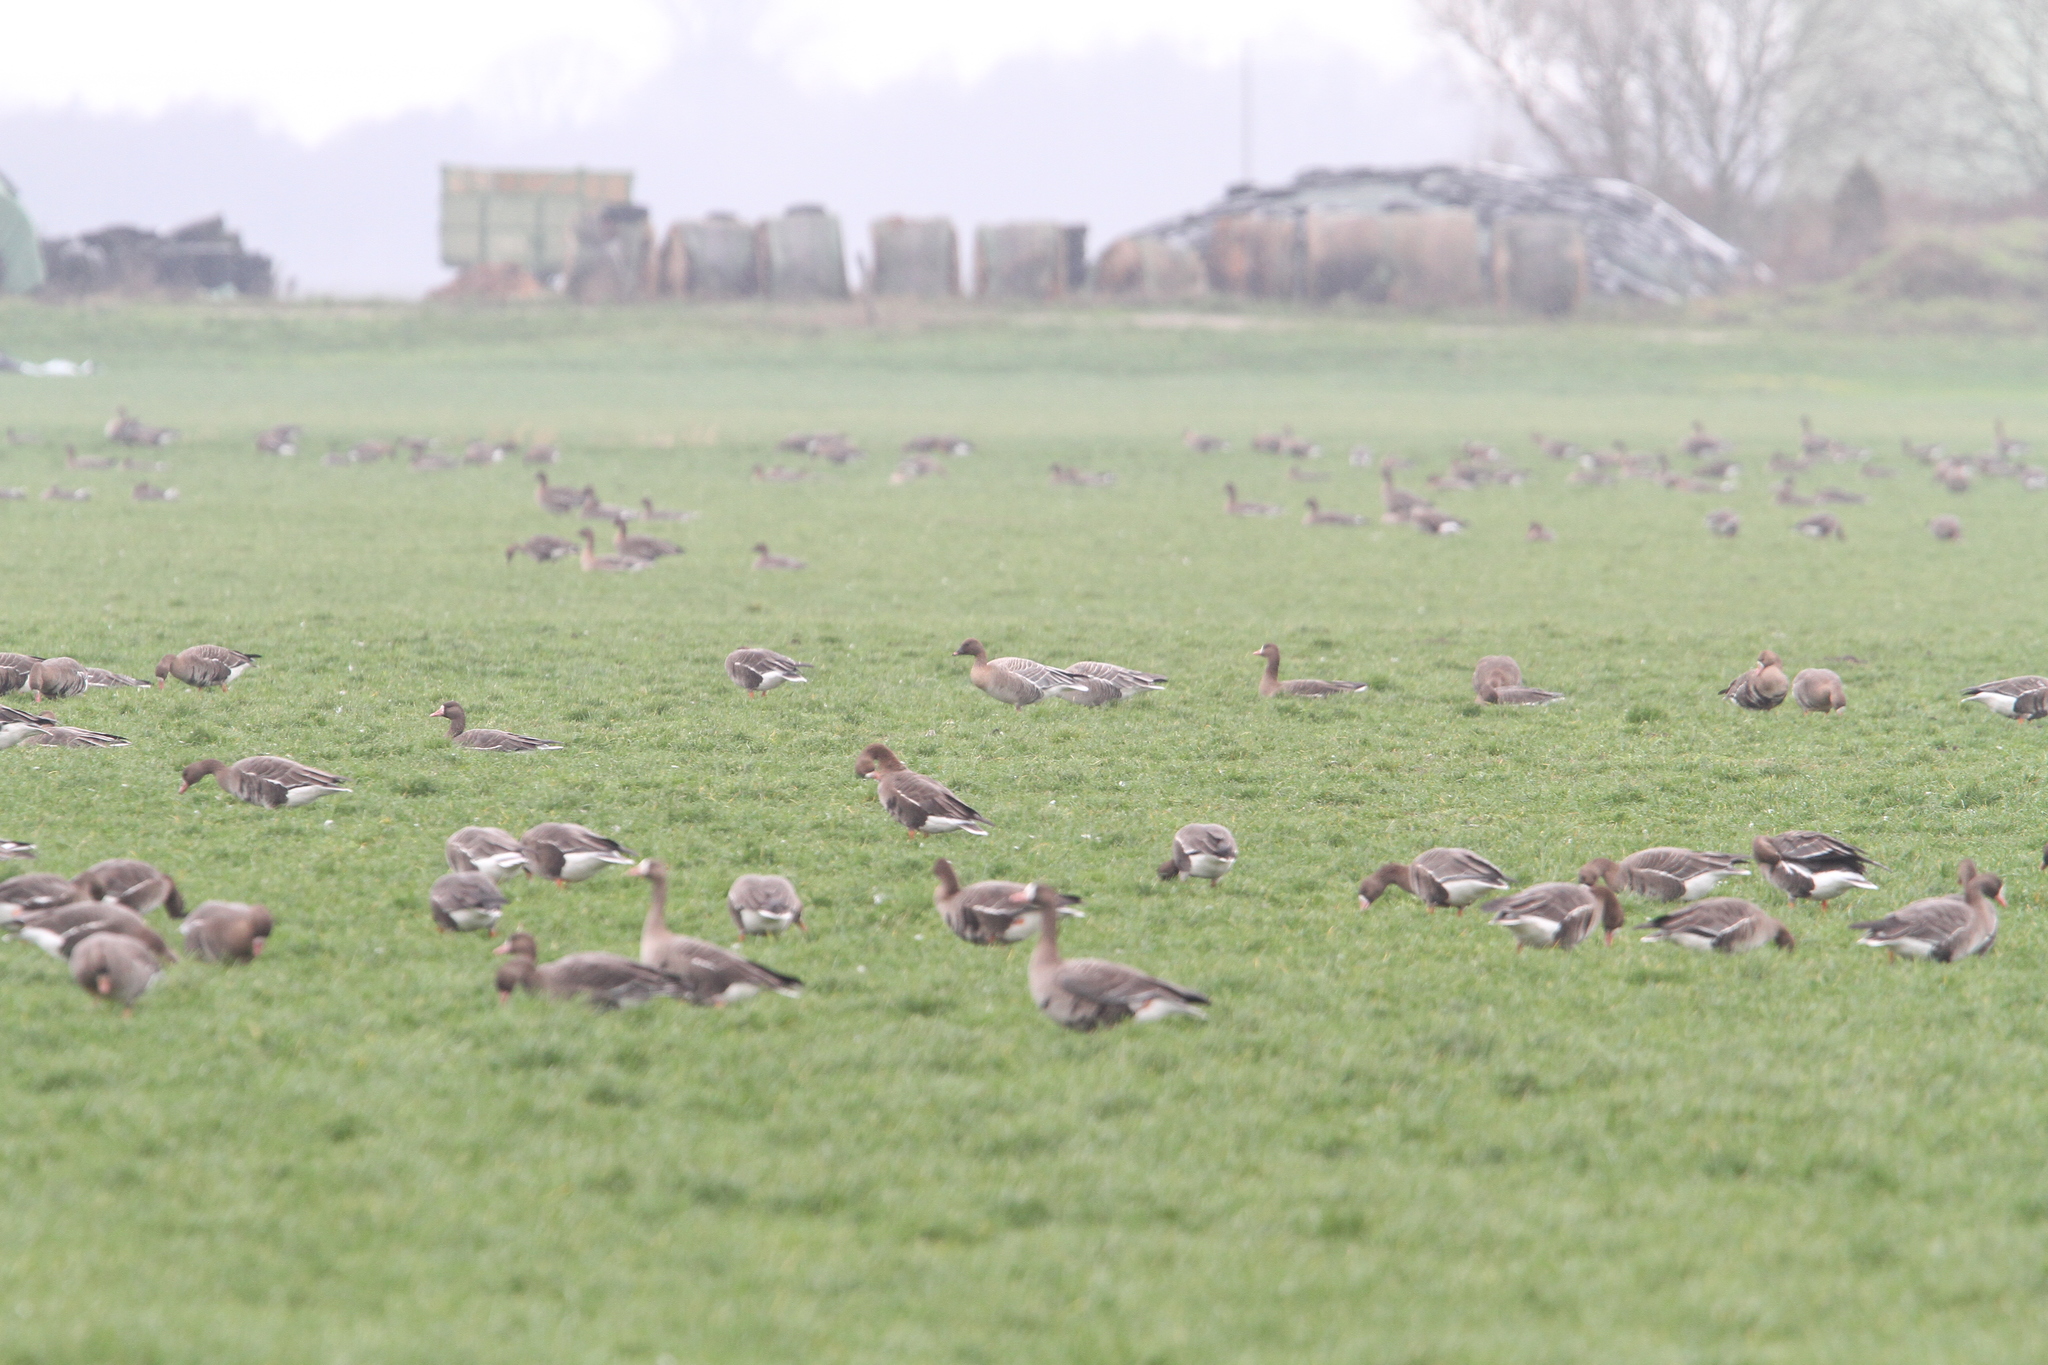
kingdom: Animalia
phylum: Chordata
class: Aves
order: Anseriformes
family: Anatidae
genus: Anser
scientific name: Anser brachyrhynchus
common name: Pink-footed goose
